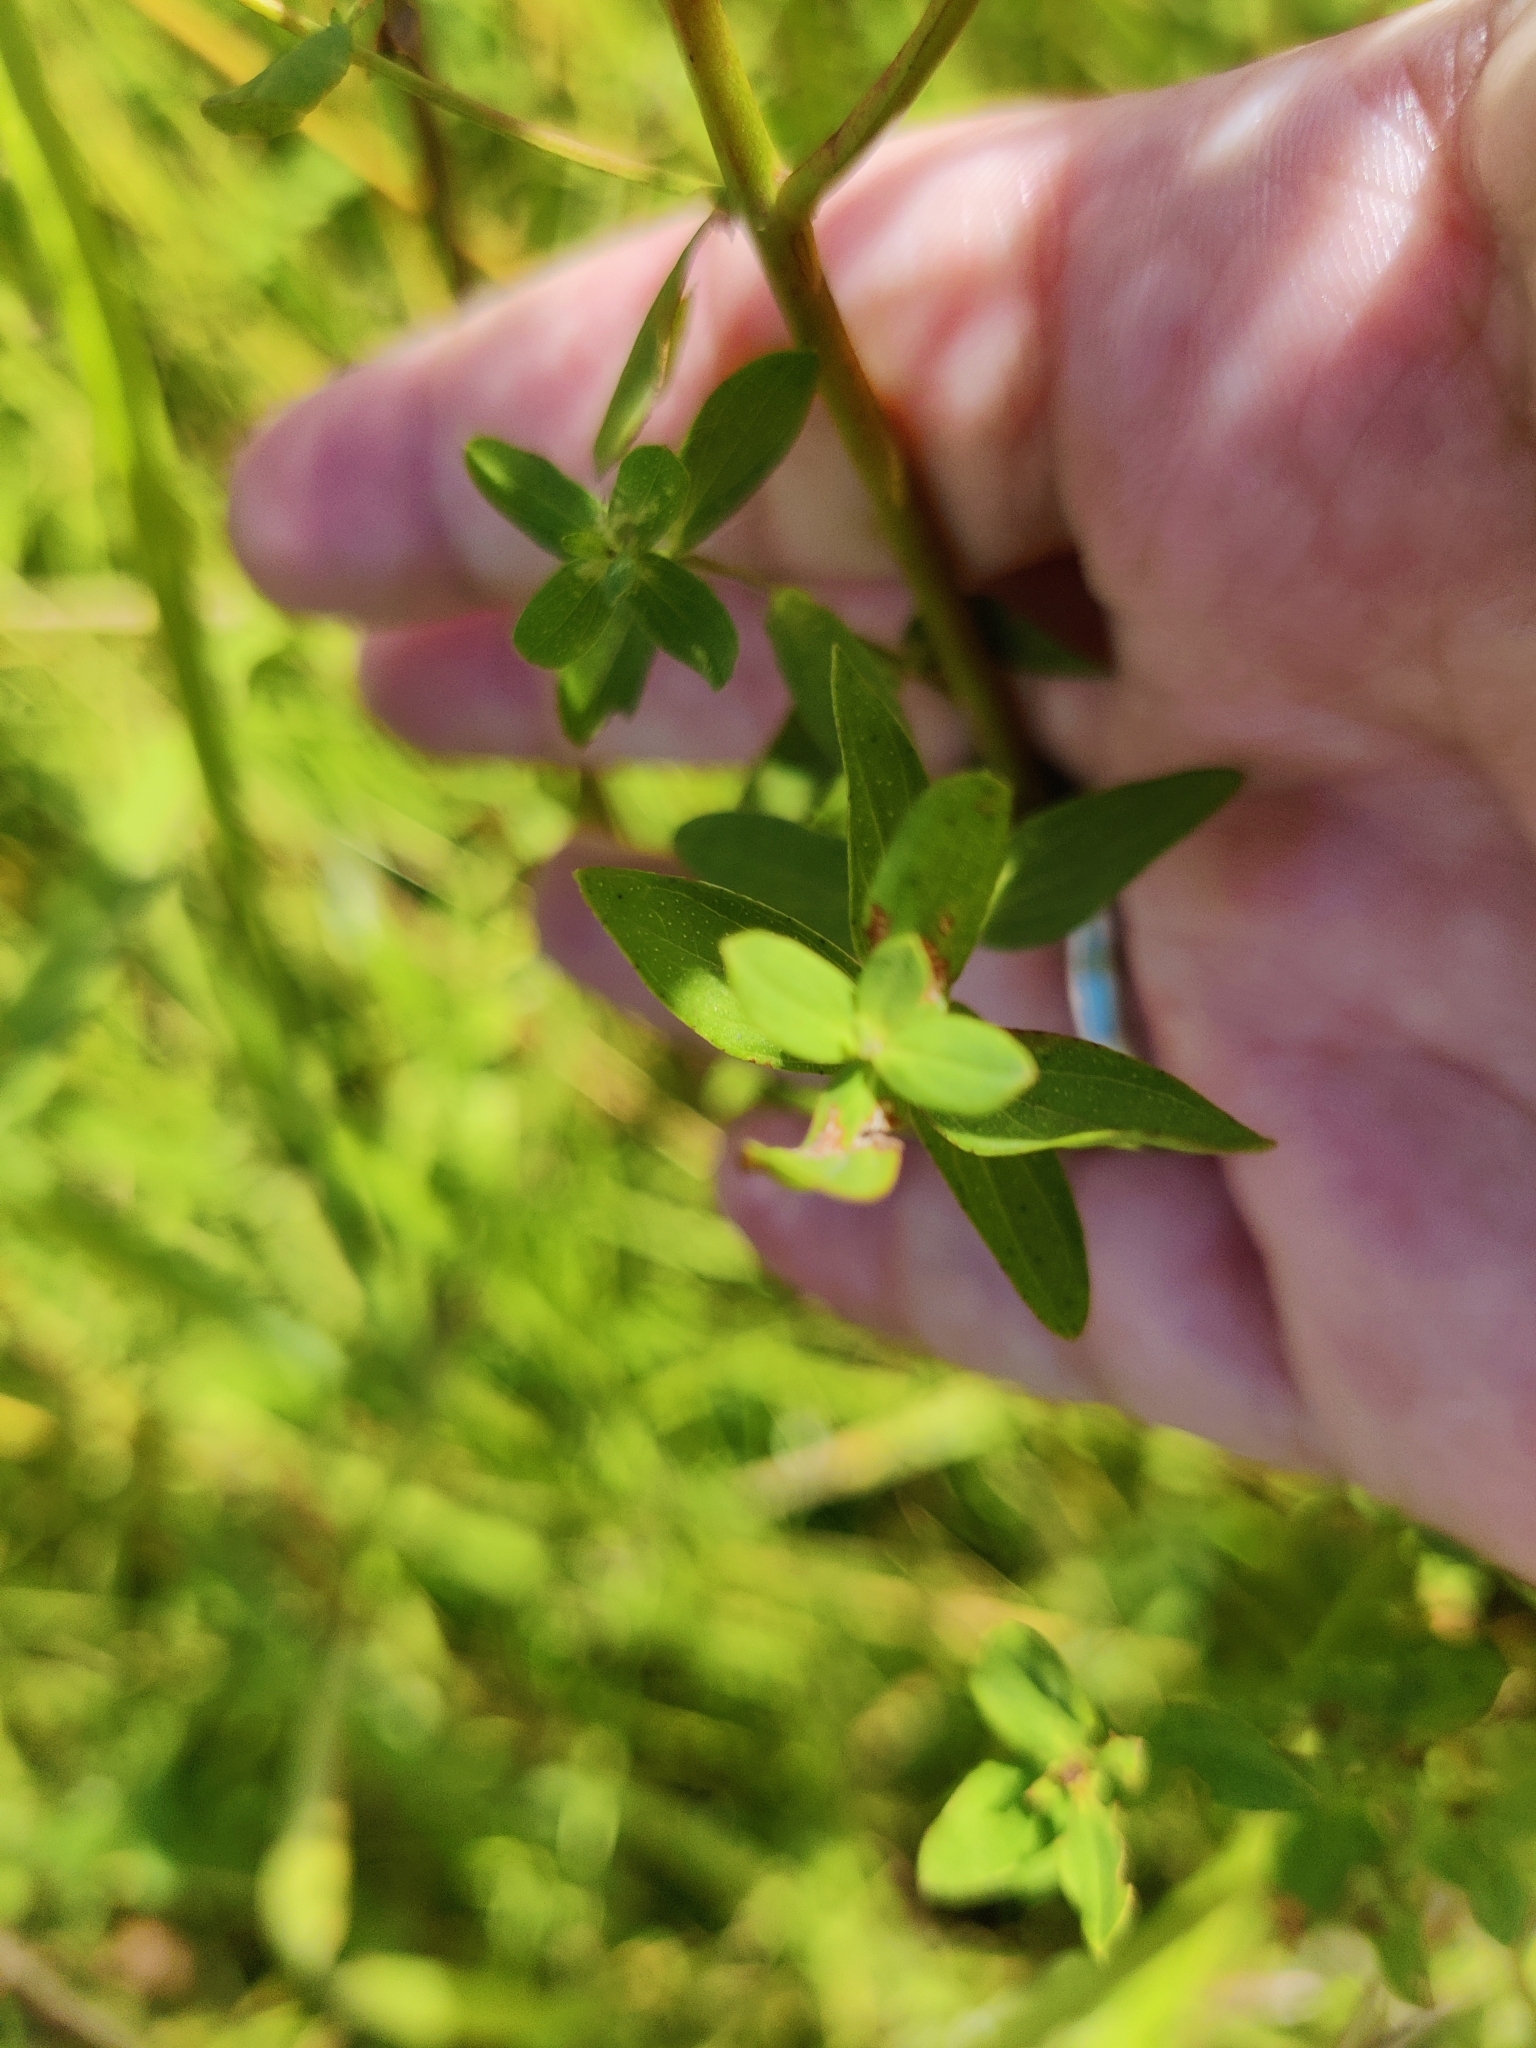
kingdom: Plantae
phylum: Tracheophyta
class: Magnoliopsida
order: Malpighiales
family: Hypericaceae
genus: Hypericum
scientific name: Hypericum perforatum
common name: Common st. johnswort
